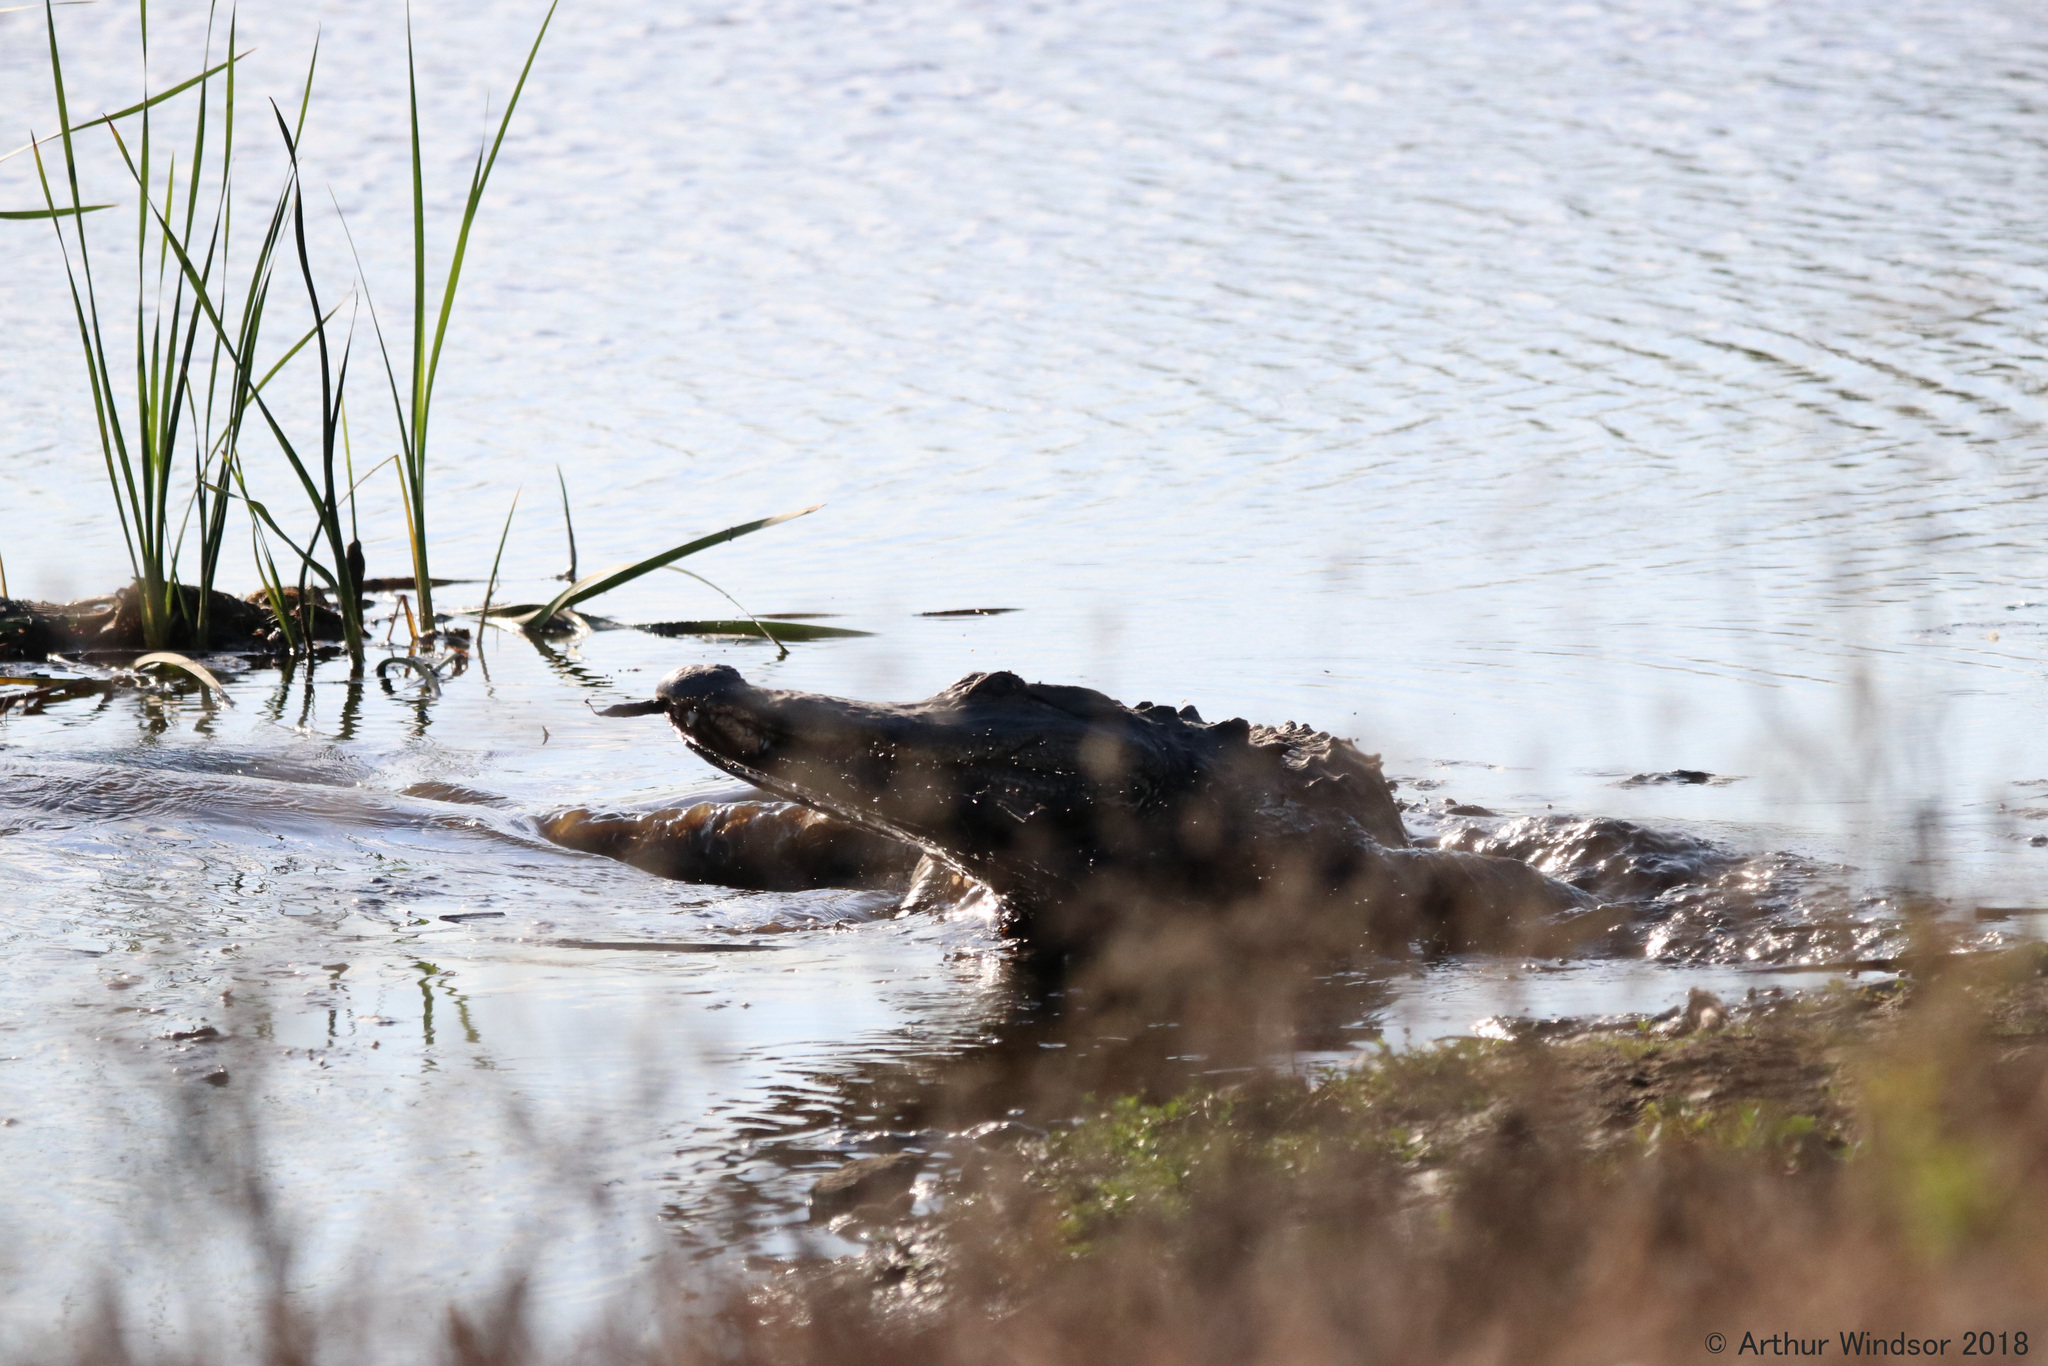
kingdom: Animalia
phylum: Chordata
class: Crocodylia
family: Alligatoridae
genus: Alligator
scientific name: Alligator mississippiensis
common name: American alligator
